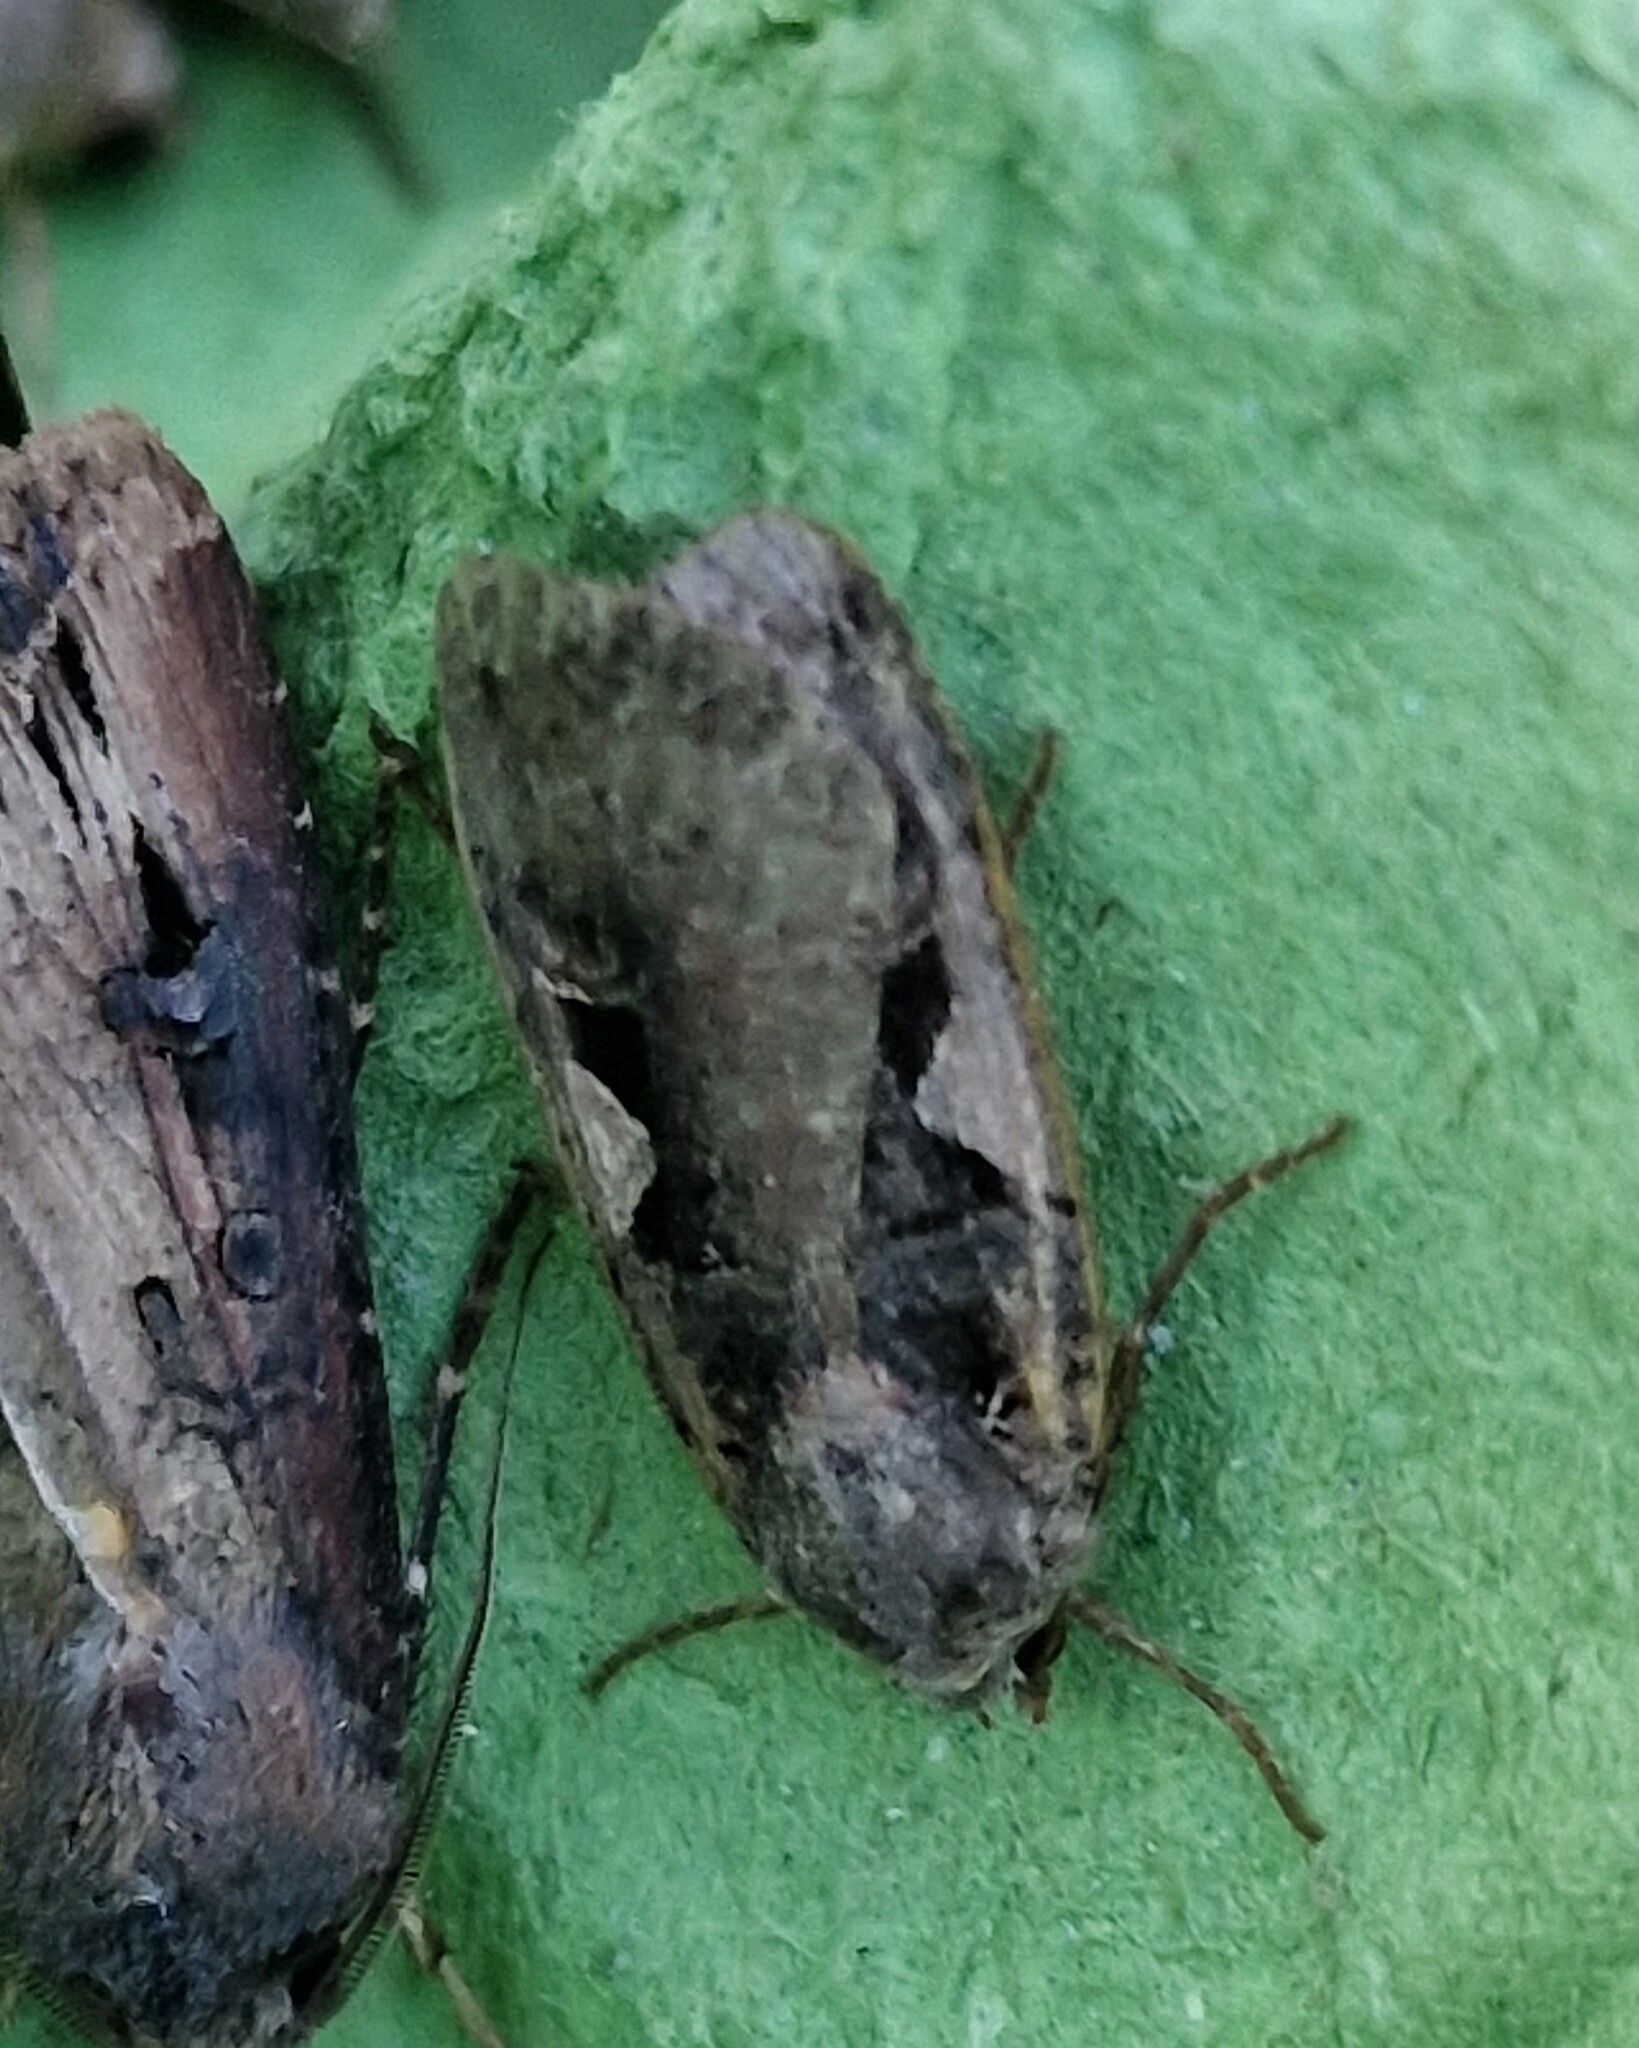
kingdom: Animalia
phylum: Arthropoda
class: Insecta
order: Lepidoptera
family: Noctuidae
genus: Xestia
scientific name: Xestia c-nigrum
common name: Setaceous hebrew character
